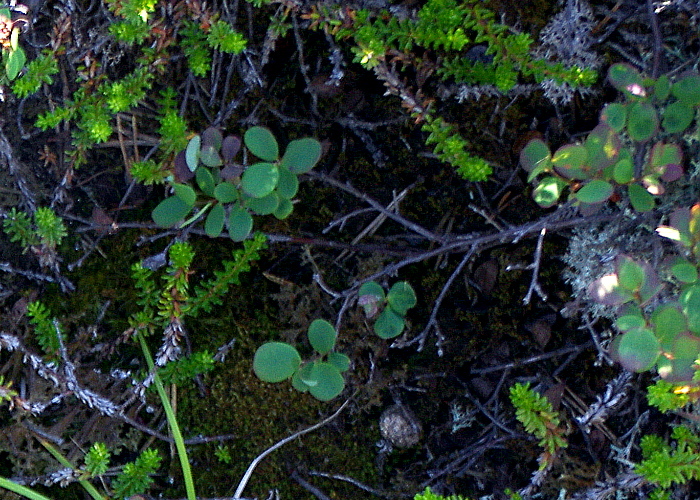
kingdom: Plantae
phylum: Tracheophyta
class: Magnoliopsida
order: Ericales
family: Ericaceae
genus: Vaccinium
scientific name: Vaccinium uliginosum
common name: Bog bilberry
